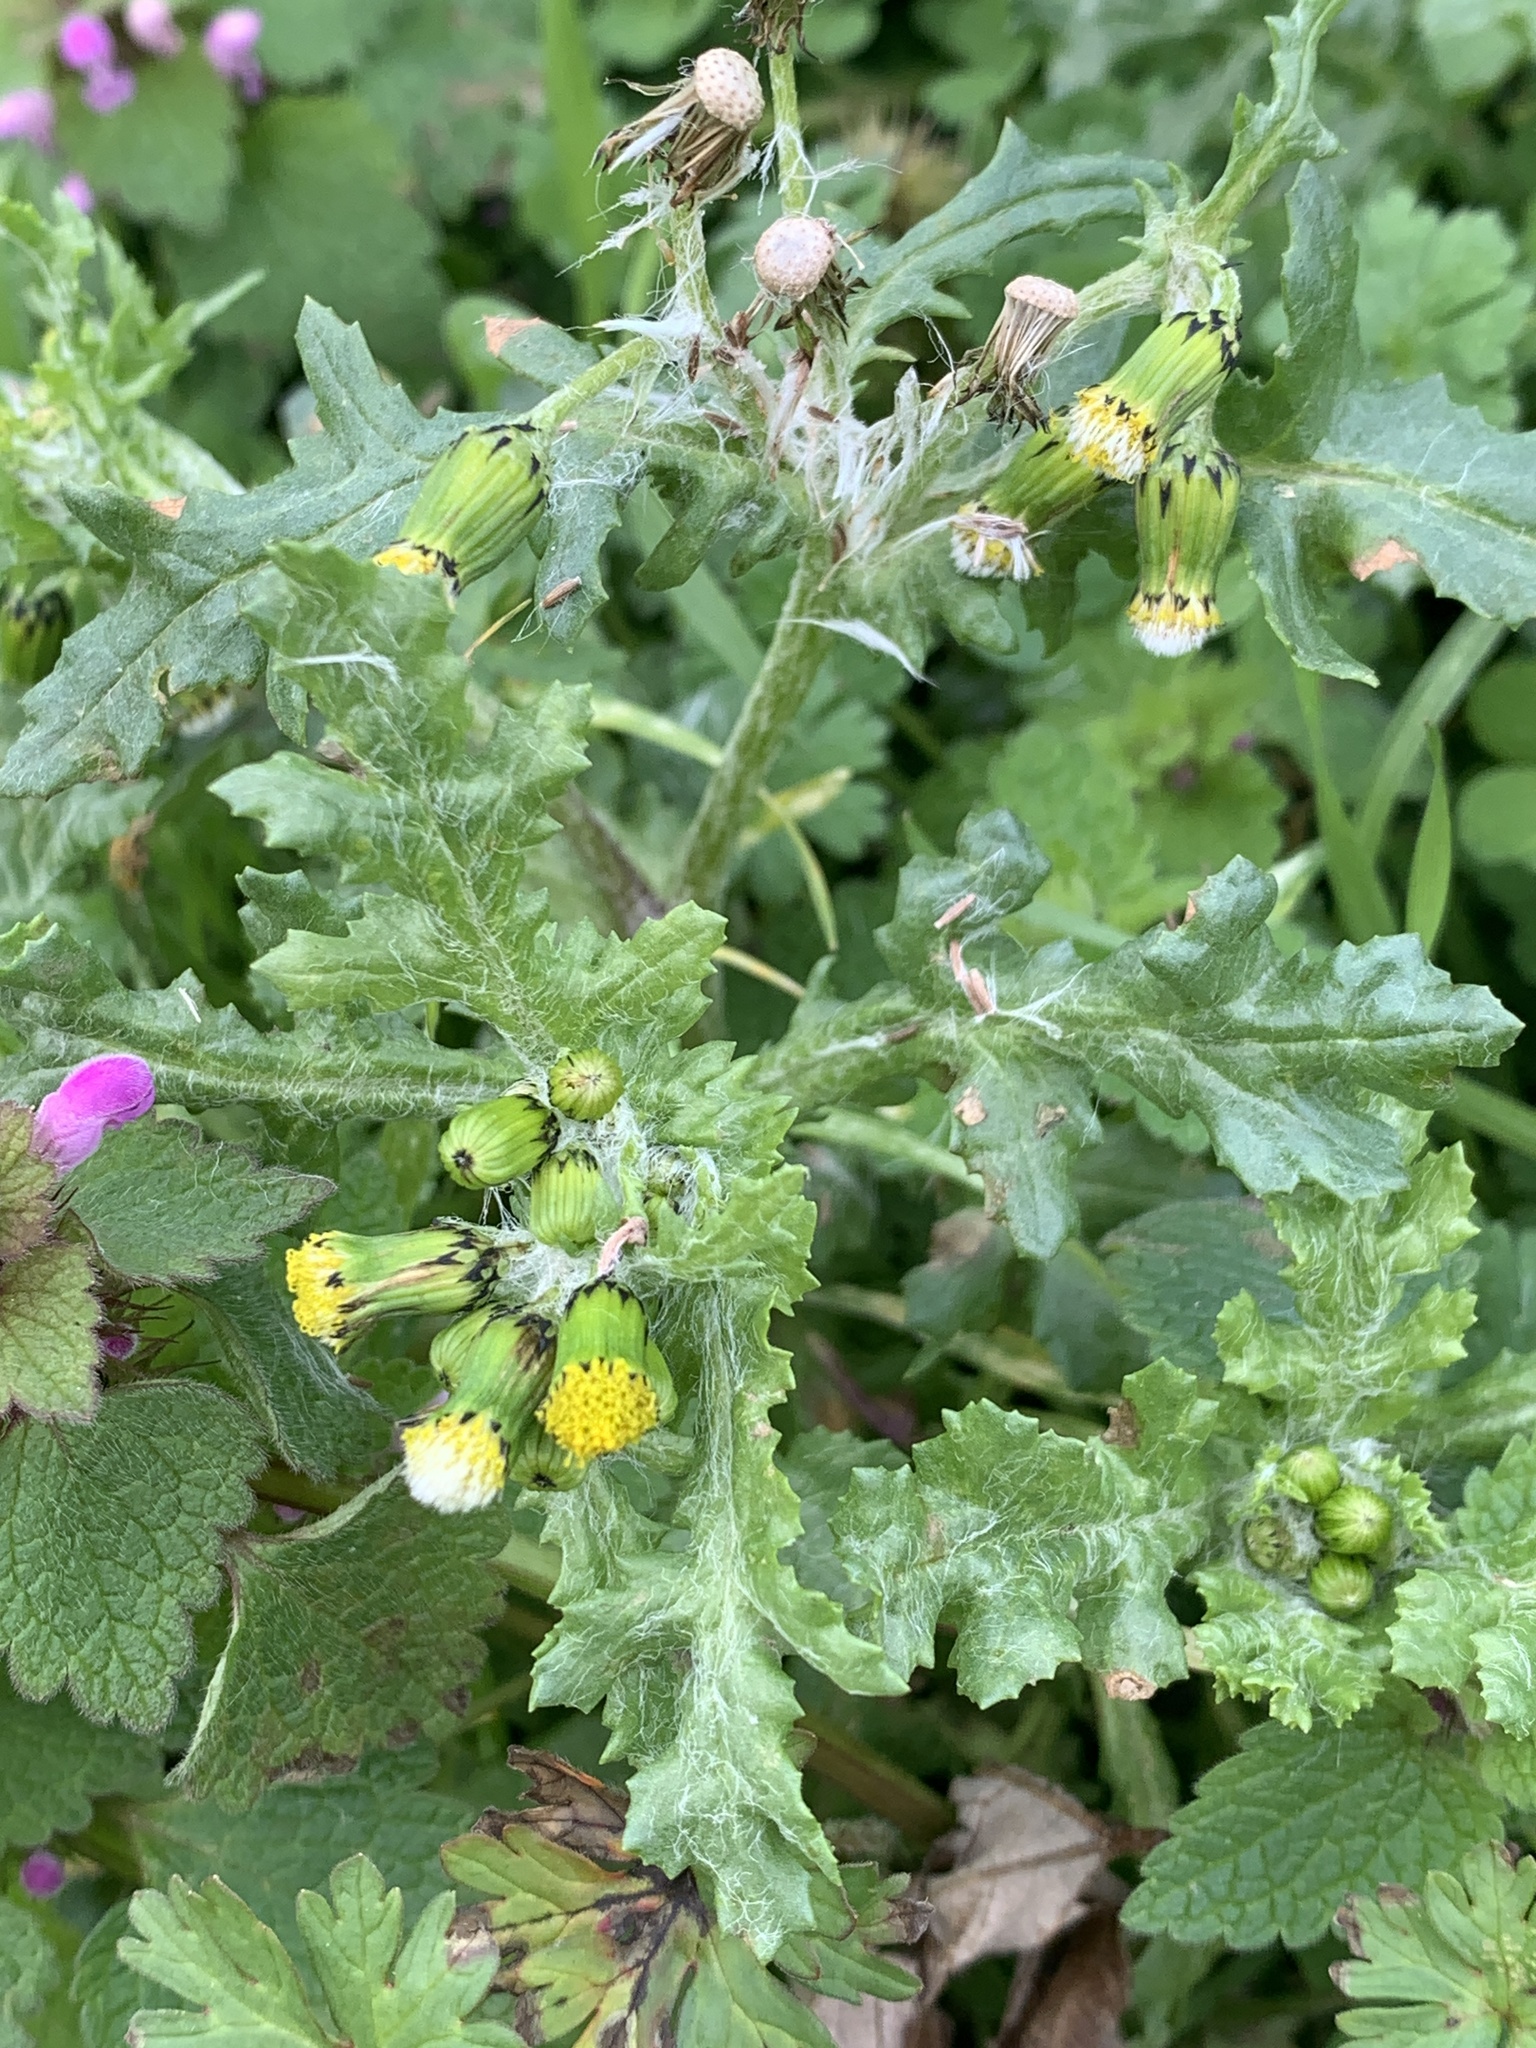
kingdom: Plantae
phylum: Tracheophyta
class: Magnoliopsida
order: Asterales
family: Asteraceae
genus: Senecio
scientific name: Senecio vulgaris
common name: Old-man-in-the-spring
